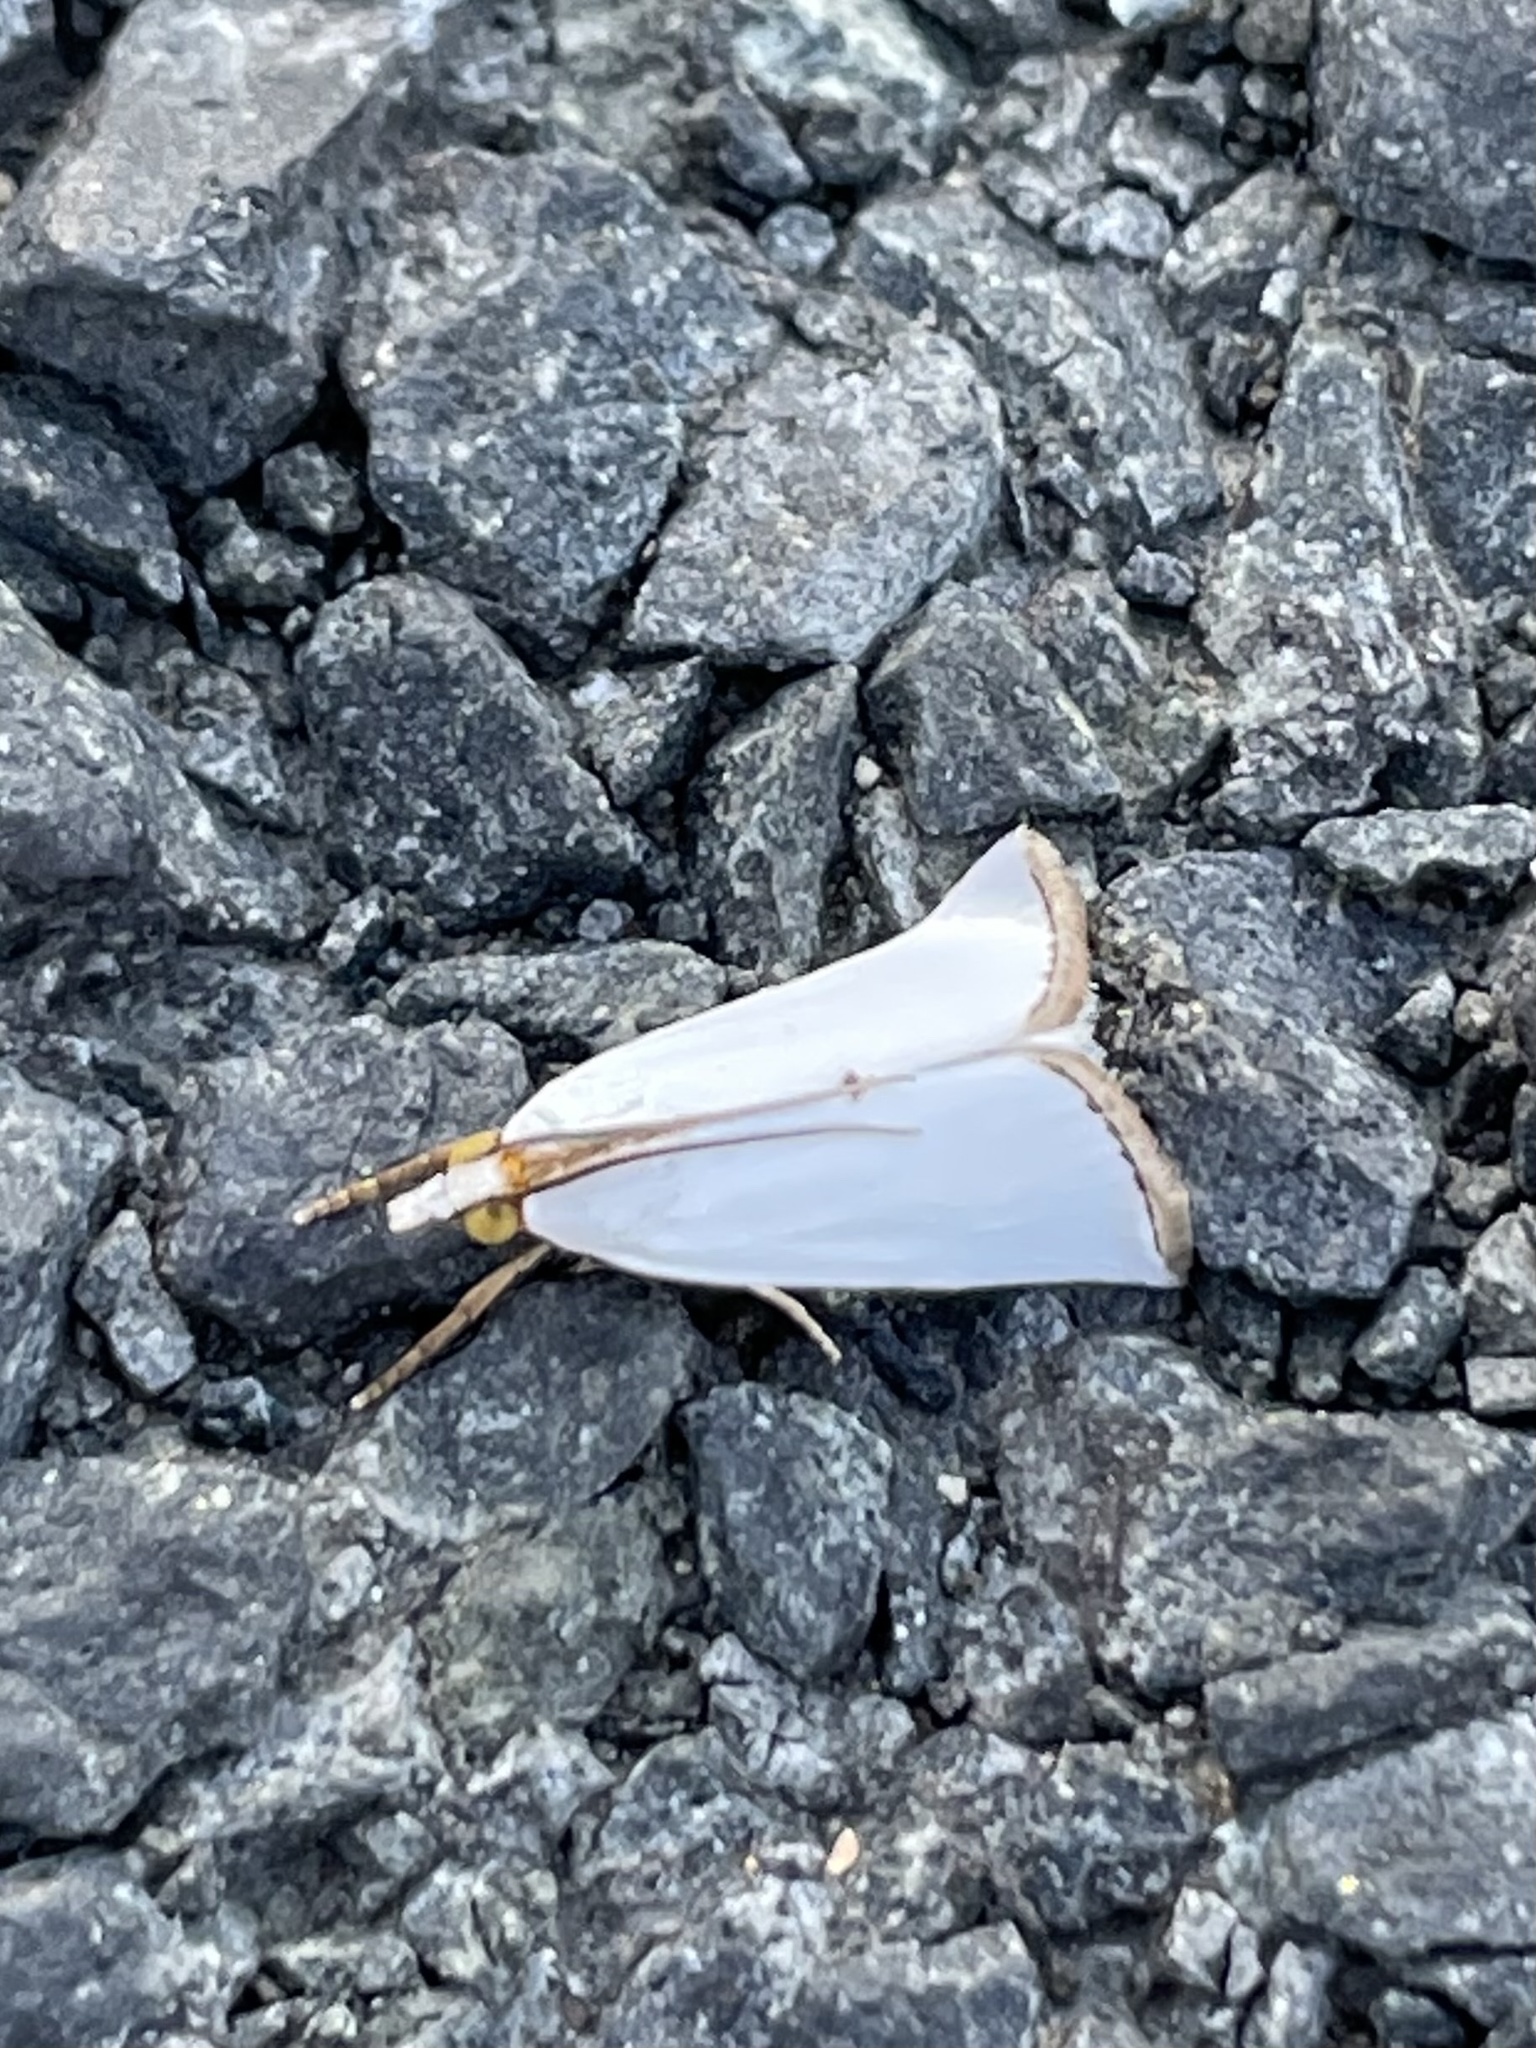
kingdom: Animalia
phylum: Arthropoda
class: Insecta
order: Lepidoptera
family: Crambidae
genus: Argyria
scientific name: Argyria nivalis
